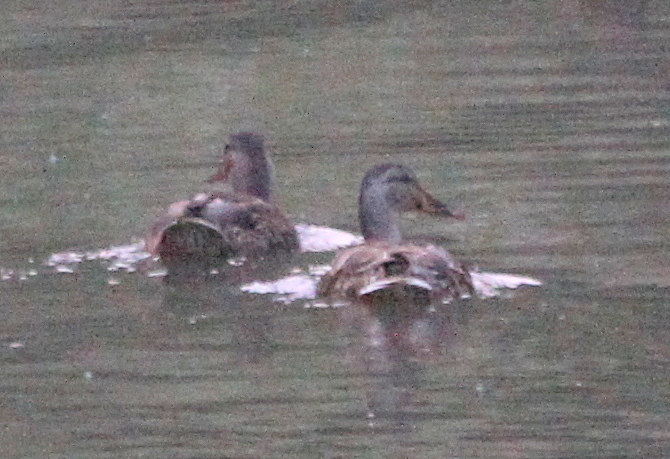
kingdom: Animalia
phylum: Chordata
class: Aves
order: Anseriformes
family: Anatidae
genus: Anas
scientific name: Anas platyrhynchos
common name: Mallard
